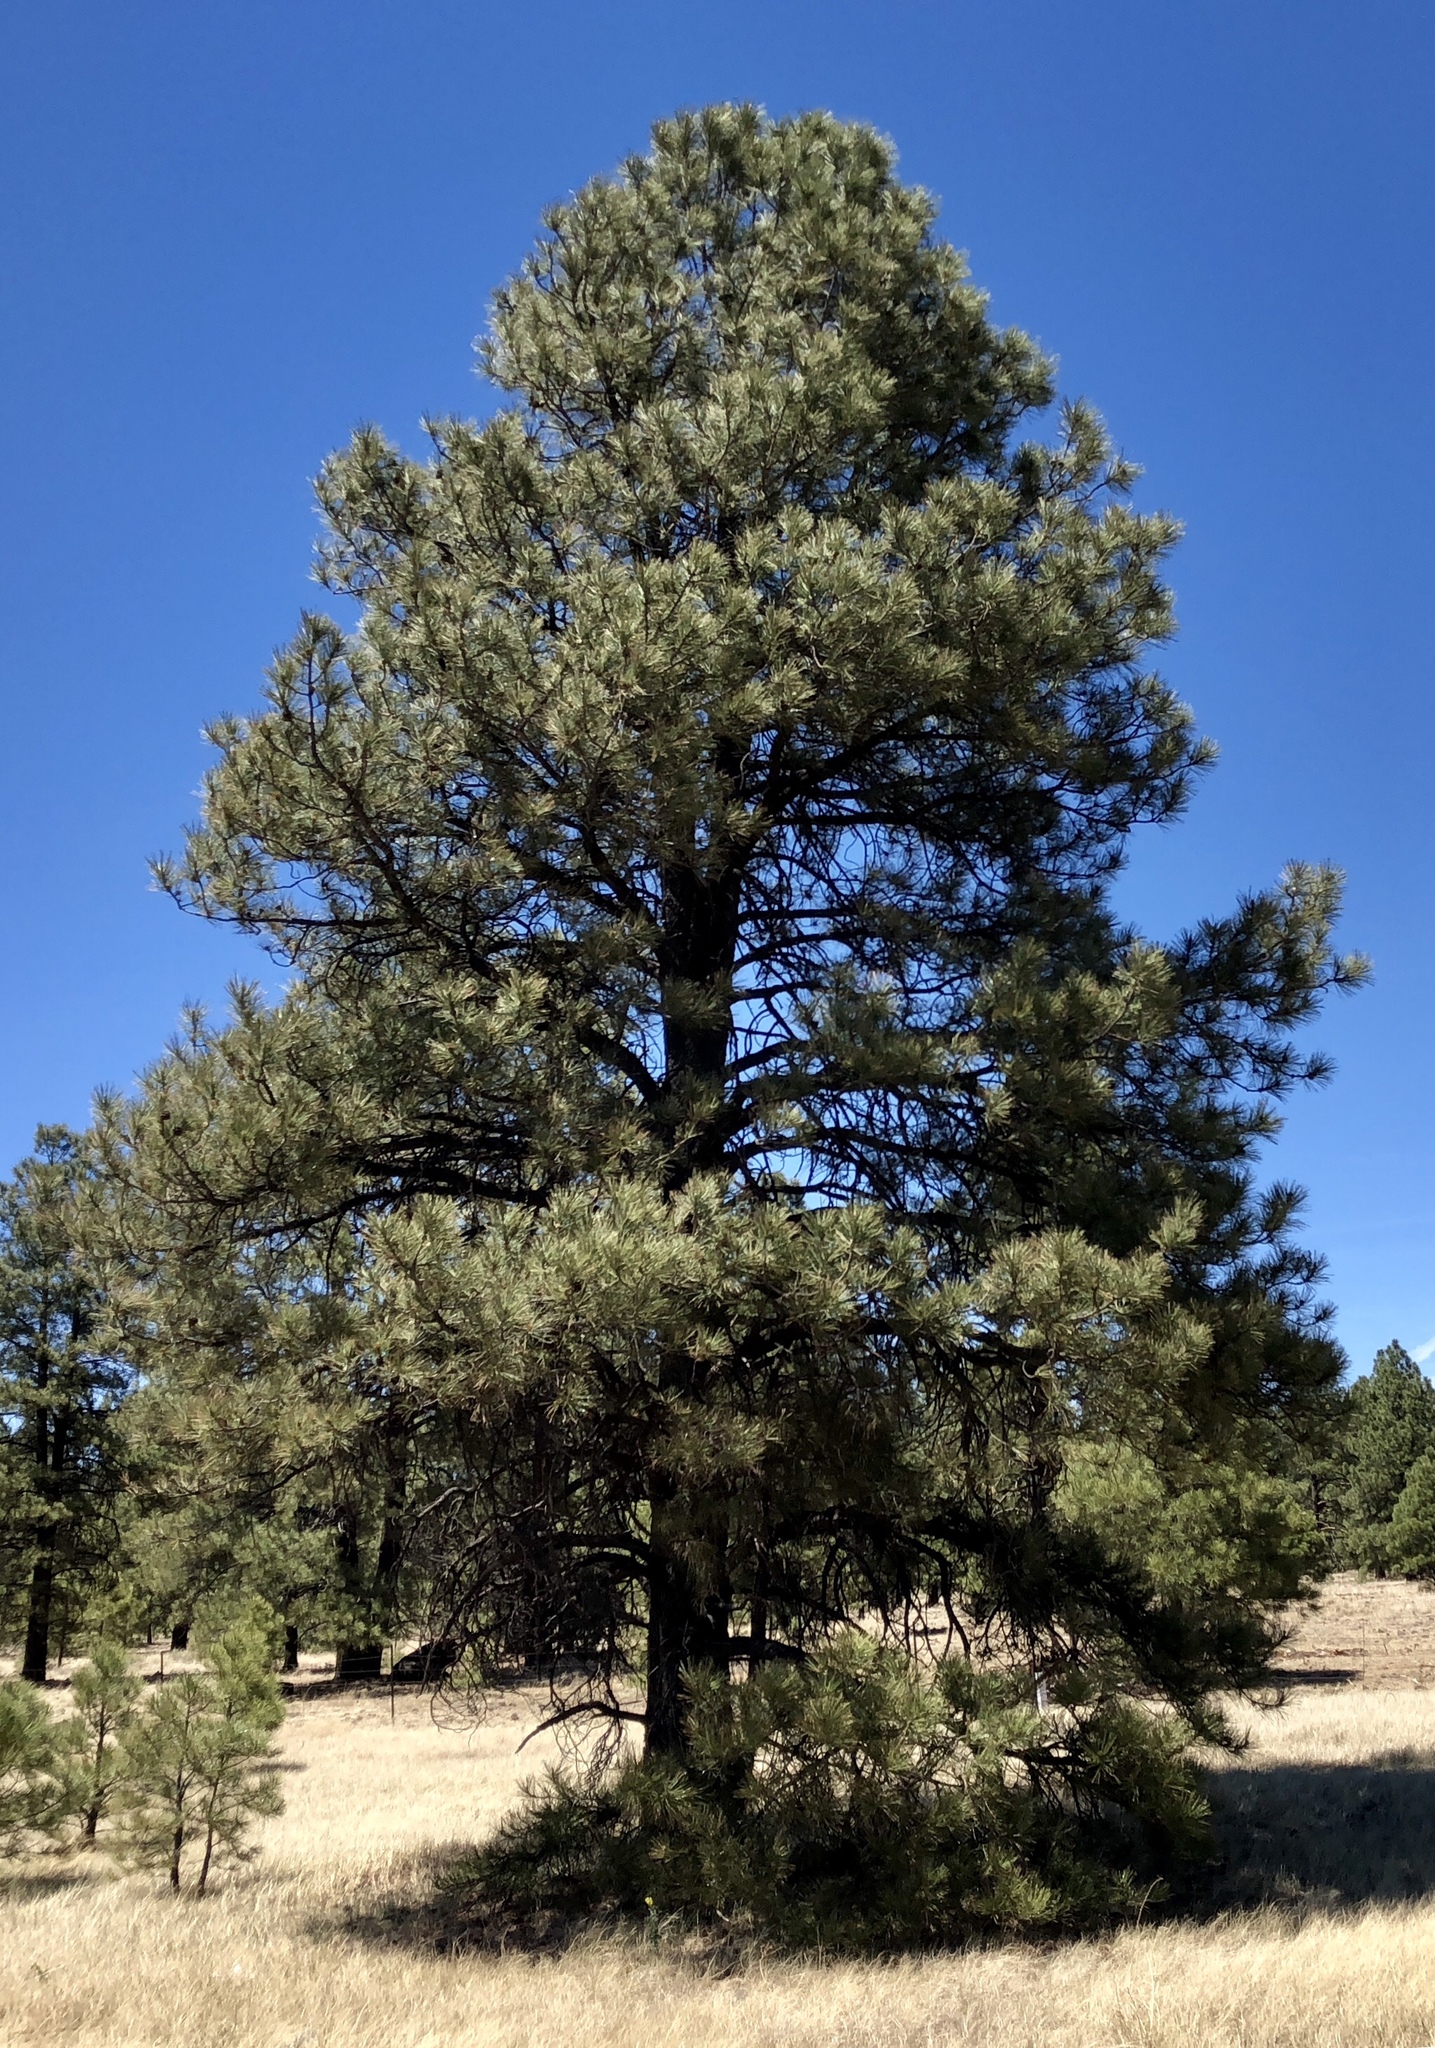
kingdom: Plantae
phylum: Tracheophyta
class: Pinopsida
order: Pinales
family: Pinaceae
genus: Pinus
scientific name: Pinus ponderosa
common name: Western yellow-pine
